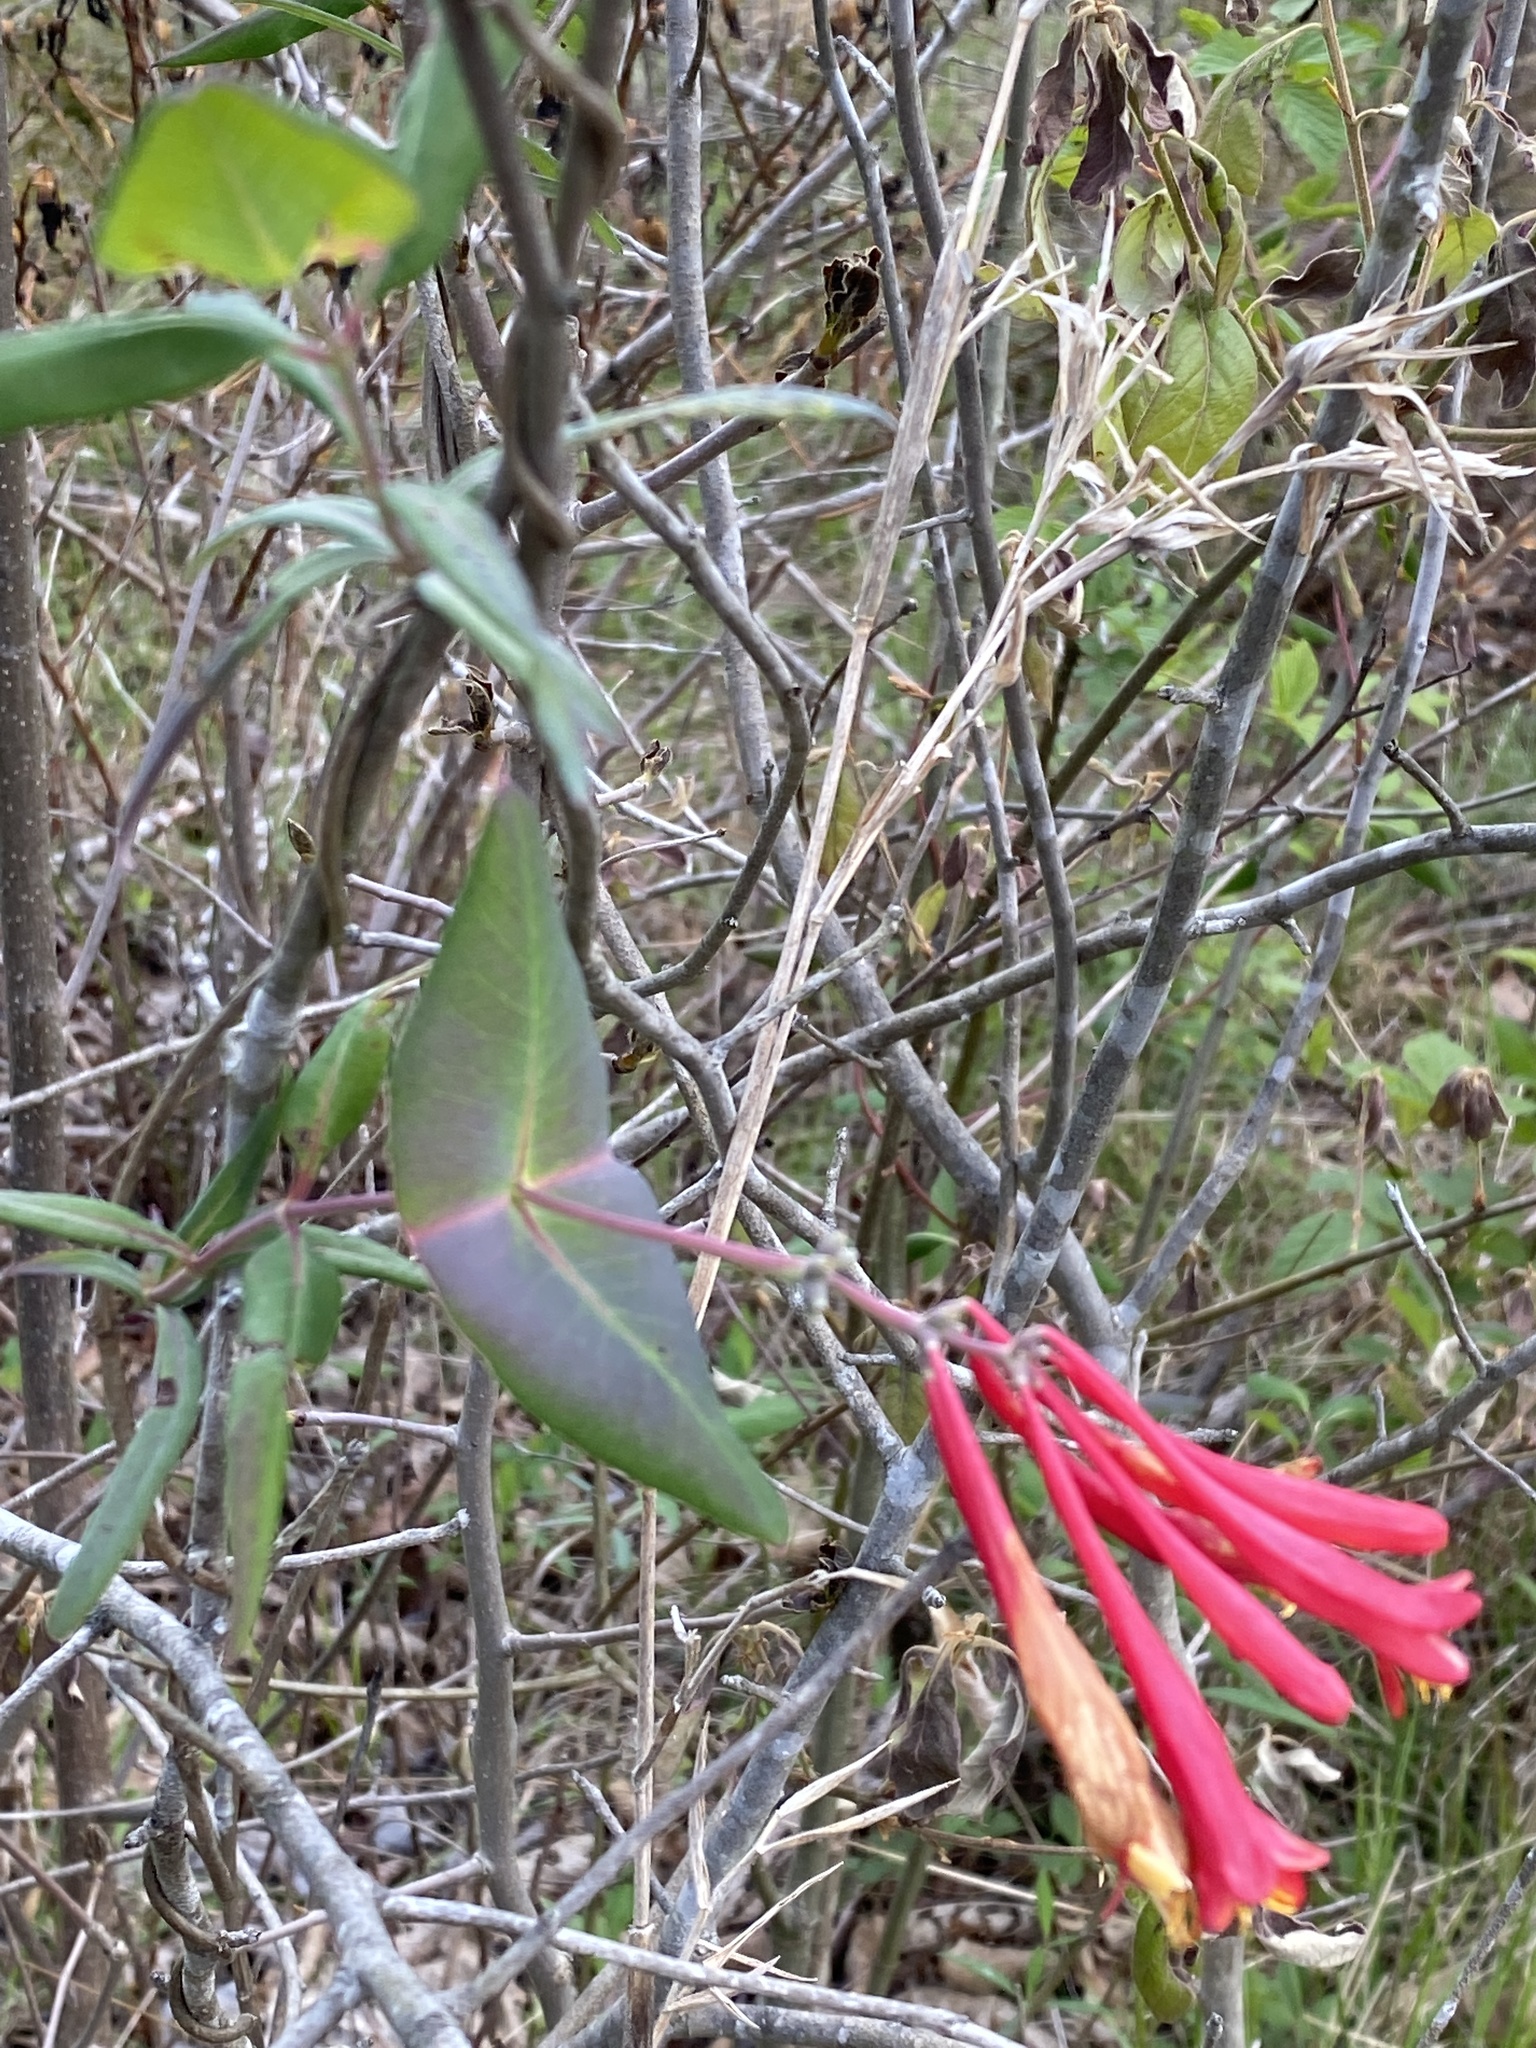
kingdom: Plantae
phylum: Tracheophyta
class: Magnoliopsida
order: Dipsacales
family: Caprifoliaceae
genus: Lonicera
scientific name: Lonicera sempervirens
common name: Coral honeysuckle
